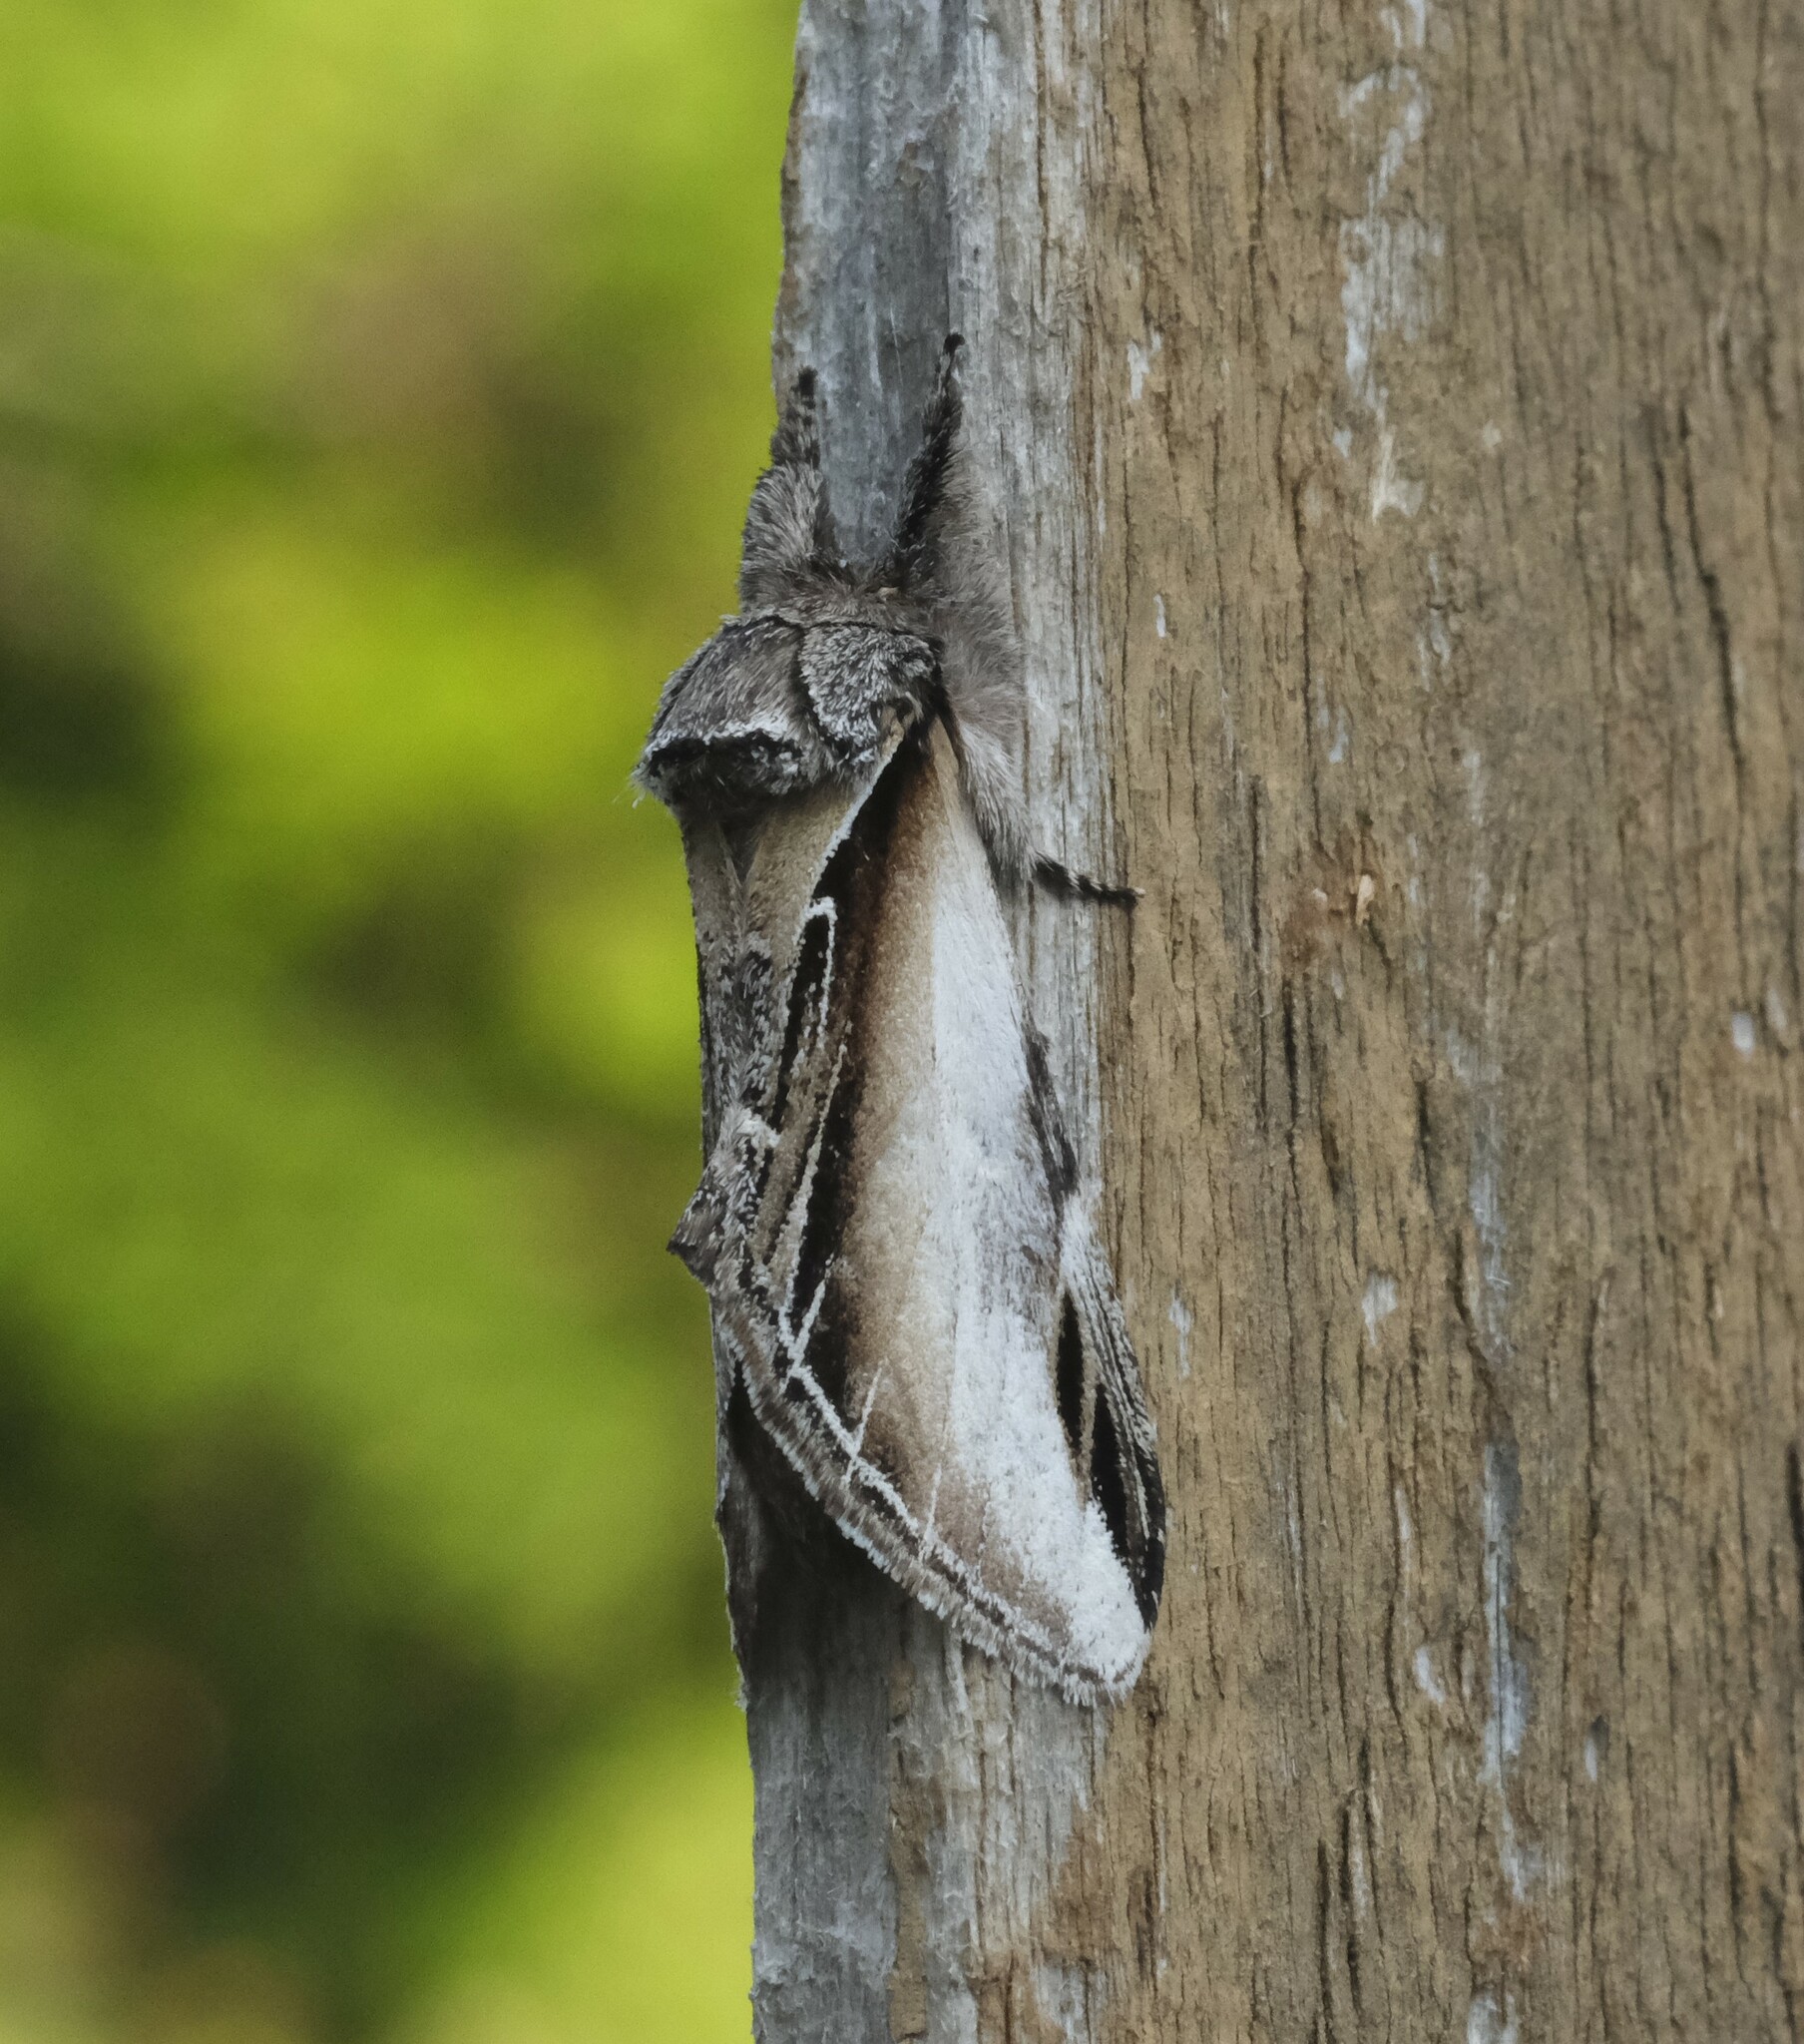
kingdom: Animalia
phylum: Arthropoda
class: Insecta
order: Lepidoptera
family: Notodontidae
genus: Pheosia
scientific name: Pheosia rimosa
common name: Black-rimmed prominent
